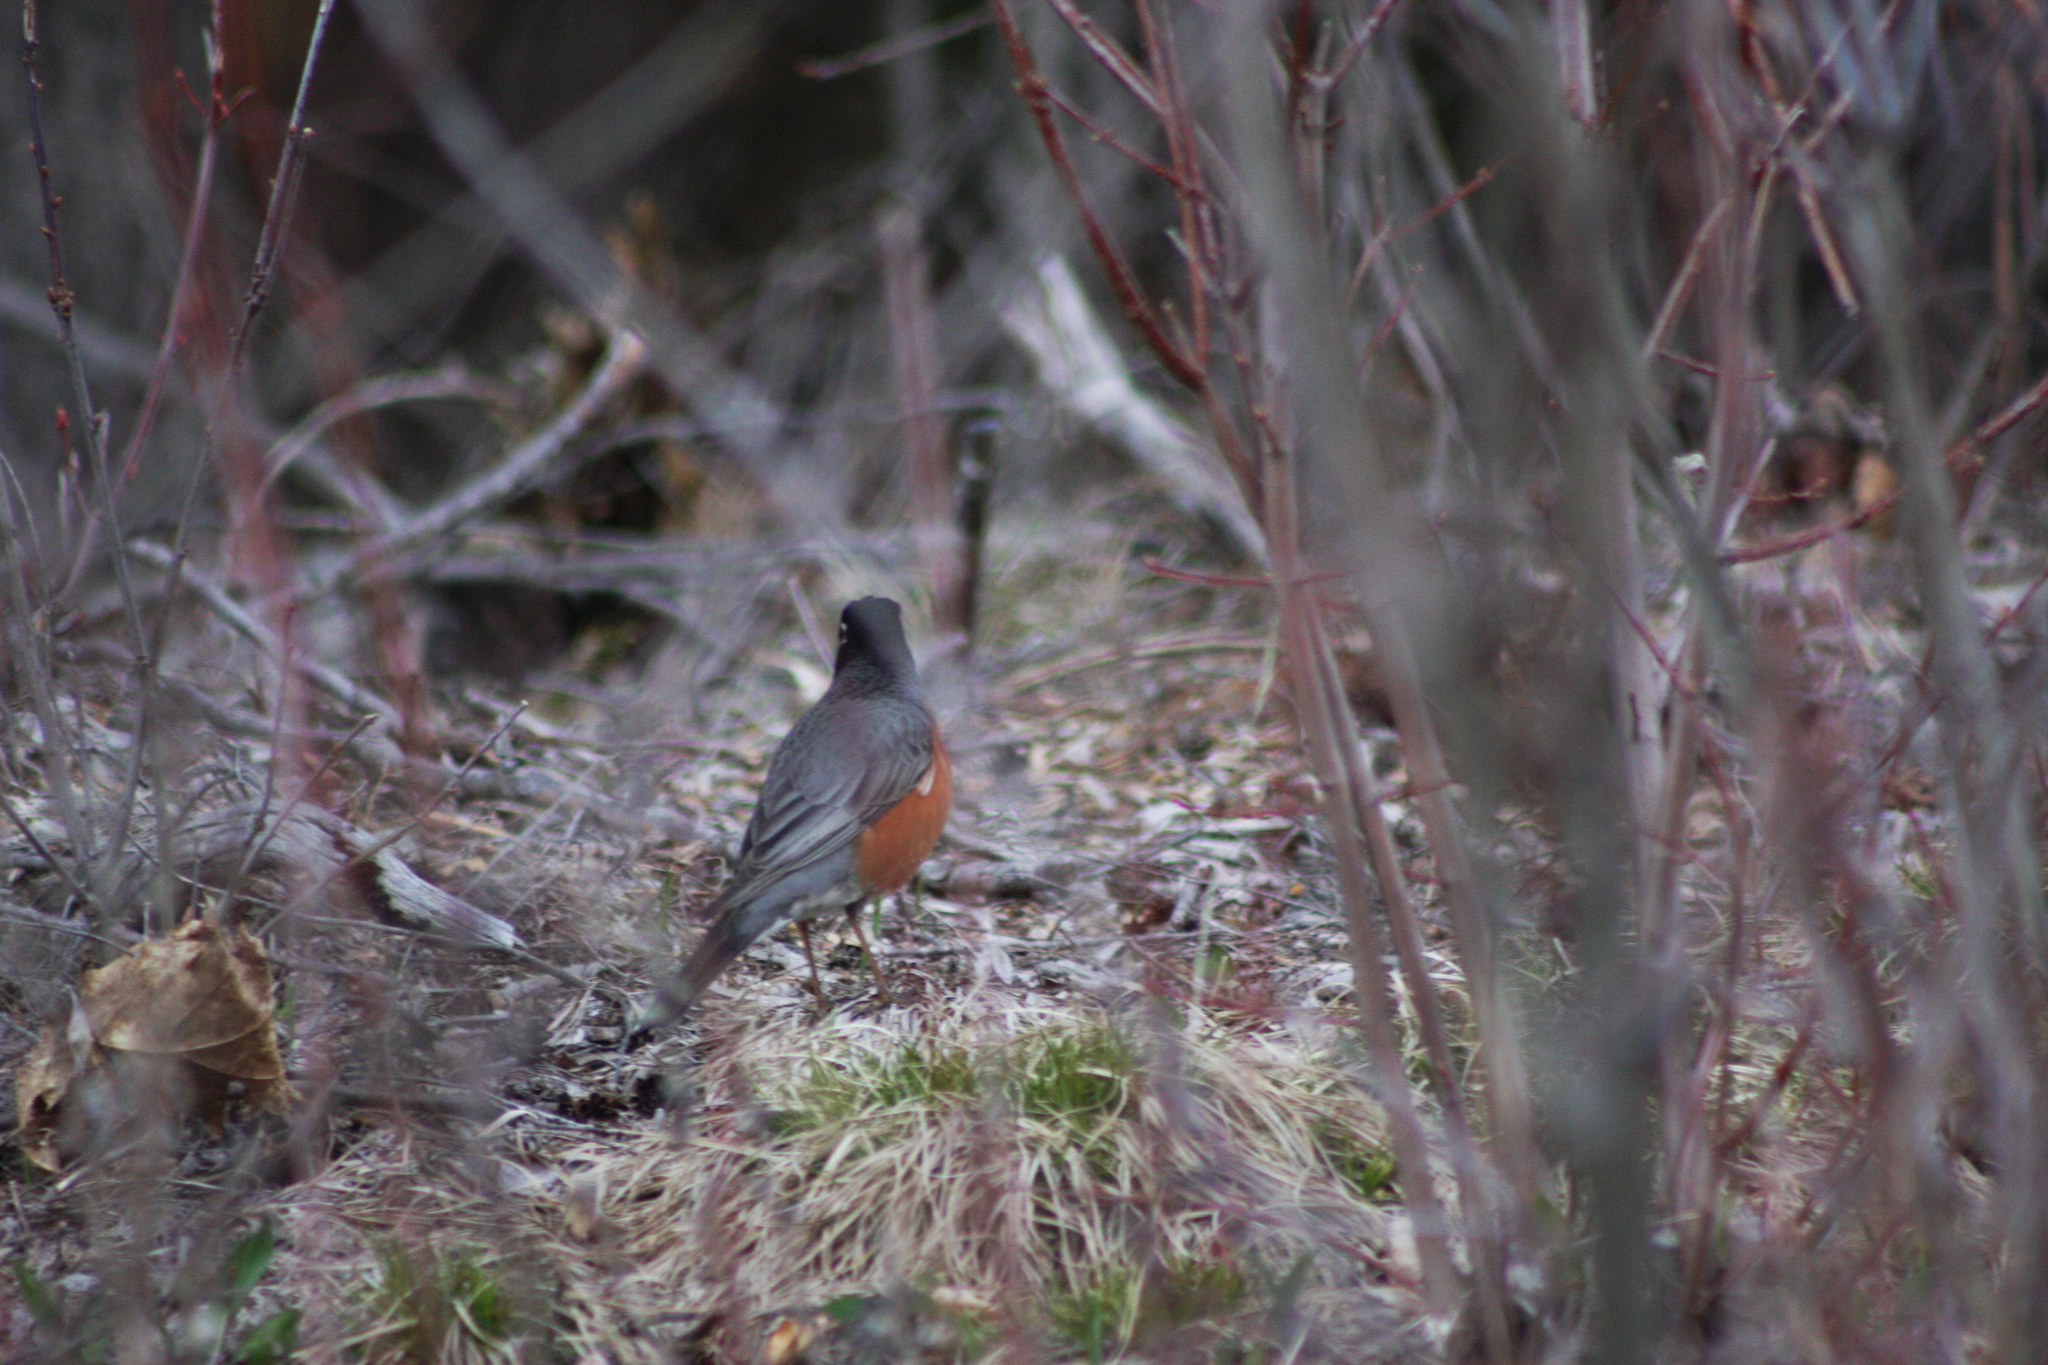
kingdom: Animalia
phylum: Chordata
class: Aves
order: Passeriformes
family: Turdidae
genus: Turdus
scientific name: Turdus migratorius
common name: American robin
